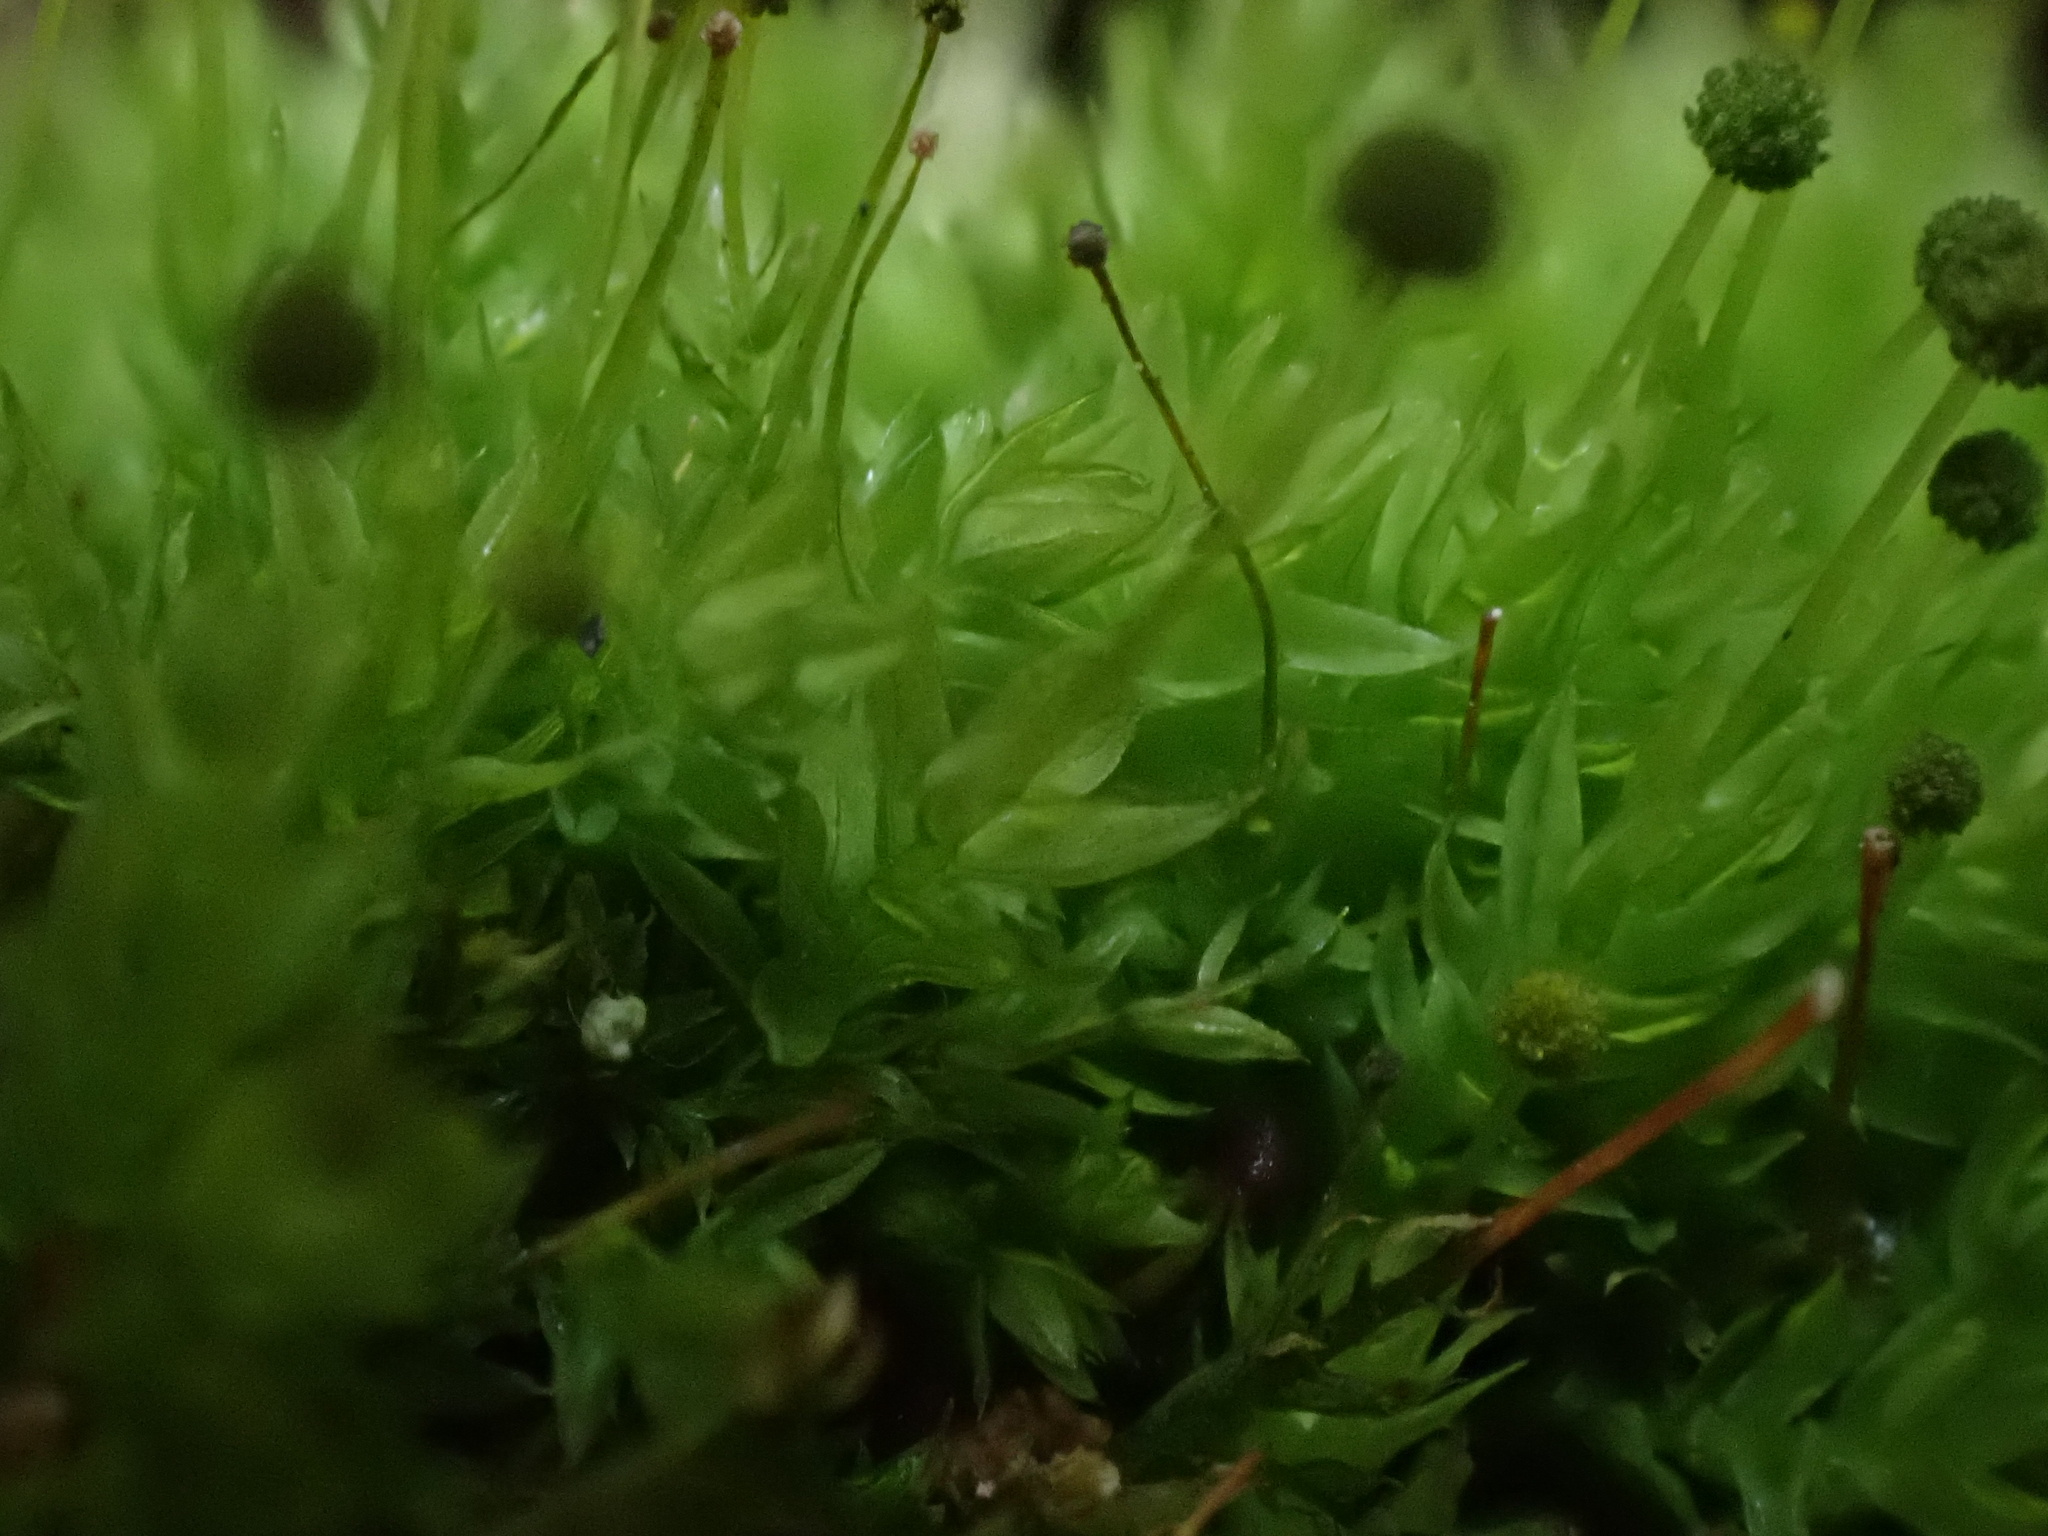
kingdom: Plantae
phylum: Bryophyta
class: Bryopsida
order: Aulacomniales
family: Aulacomniaceae
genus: Aulacomnium
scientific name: Aulacomnium androgynum
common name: Little groove moss
